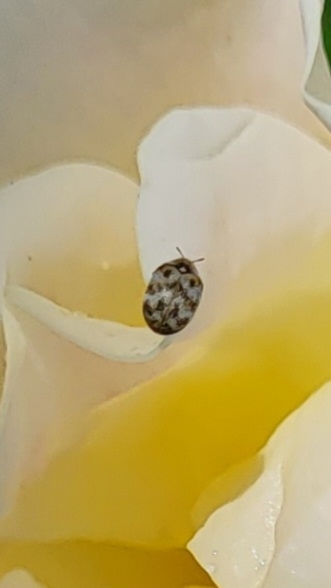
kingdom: Animalia
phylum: Arthropoda
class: Insecta
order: Coleoptera
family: Dermestidae
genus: Anthrenus
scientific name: Anthrenus verbasci
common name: Varied carpet beetle
